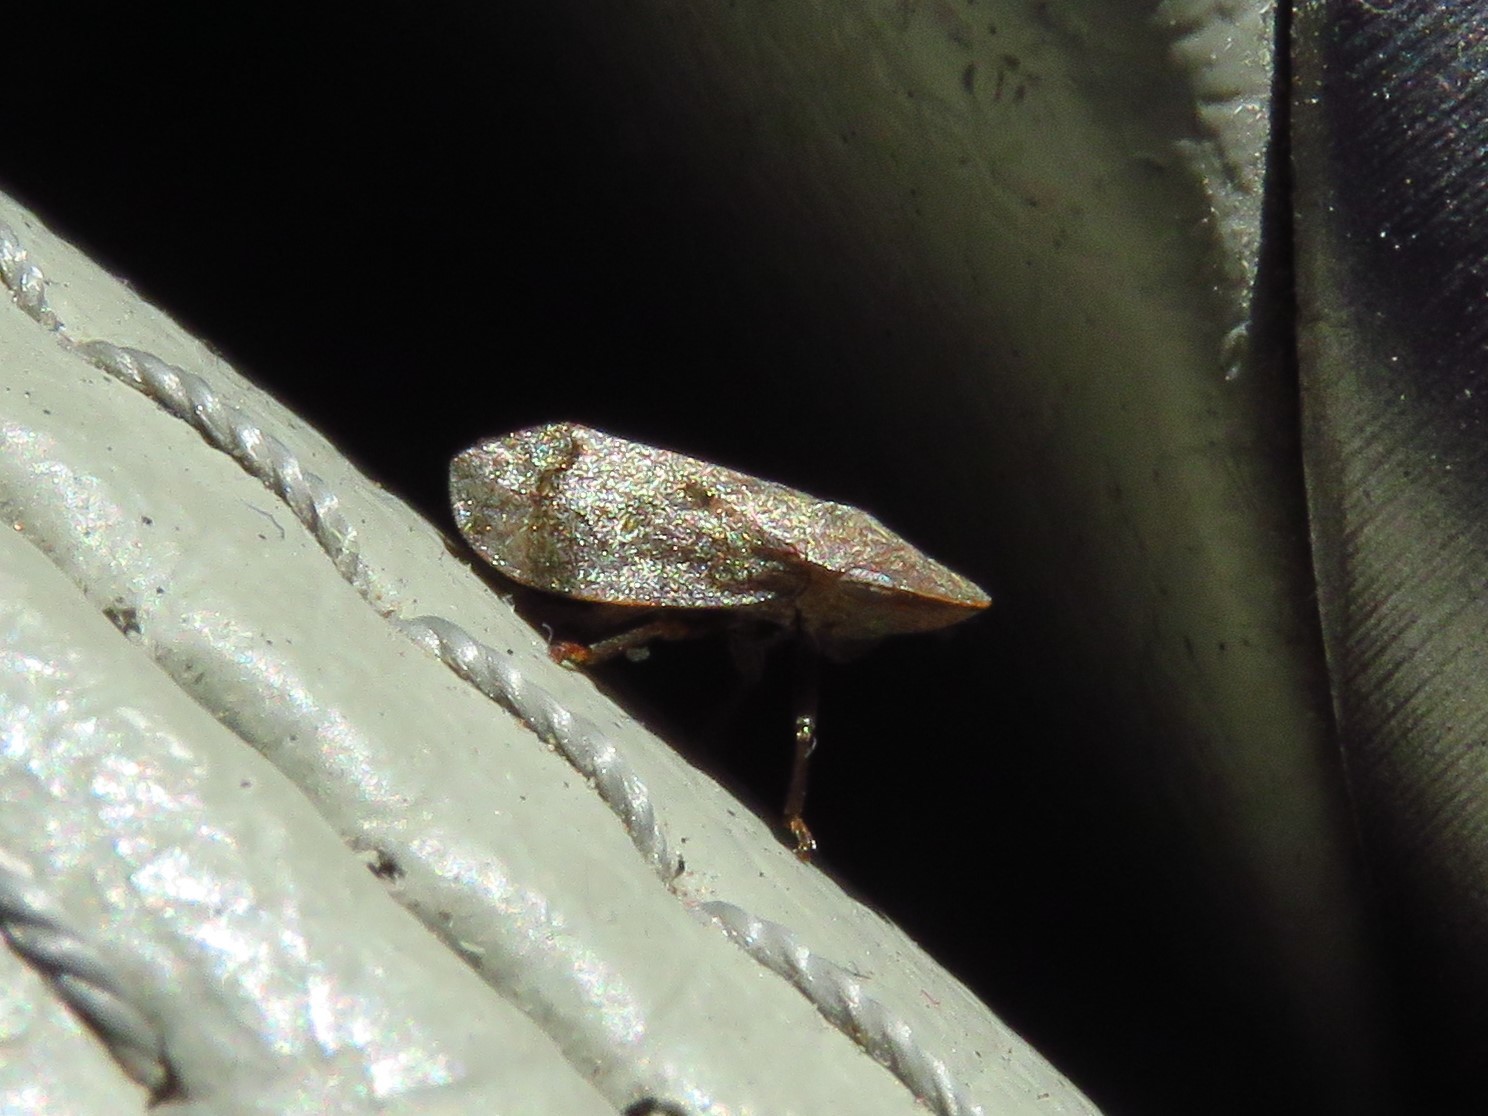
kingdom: Animalia
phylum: Arthropoda
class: Insecta
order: Hemiptera
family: Aphrophoridae
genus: Lepyronia
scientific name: Lepyronia quadrangularis
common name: Diamond-backed spittlebug
